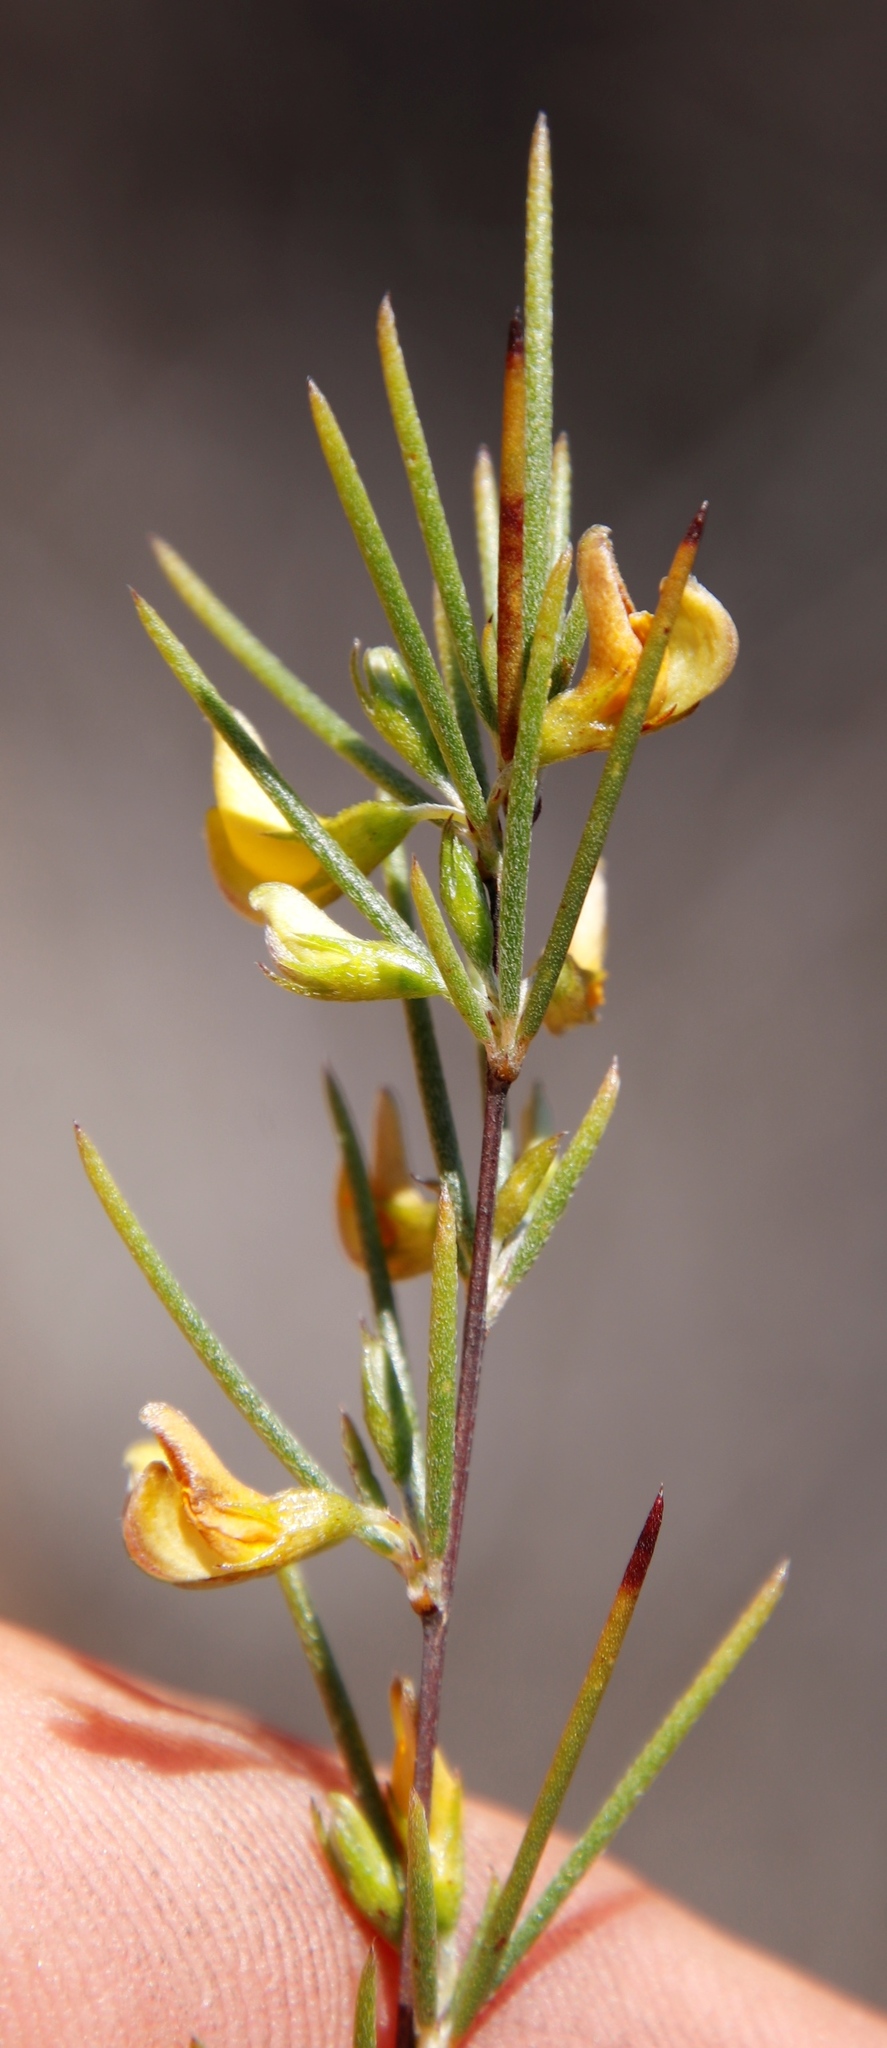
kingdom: Plantae
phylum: Tracheophyta
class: Magnoliopsida
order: Fabales
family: Fabaceae
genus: Aspalathus
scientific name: Aspalathus linearis
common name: Rooibos-tea
